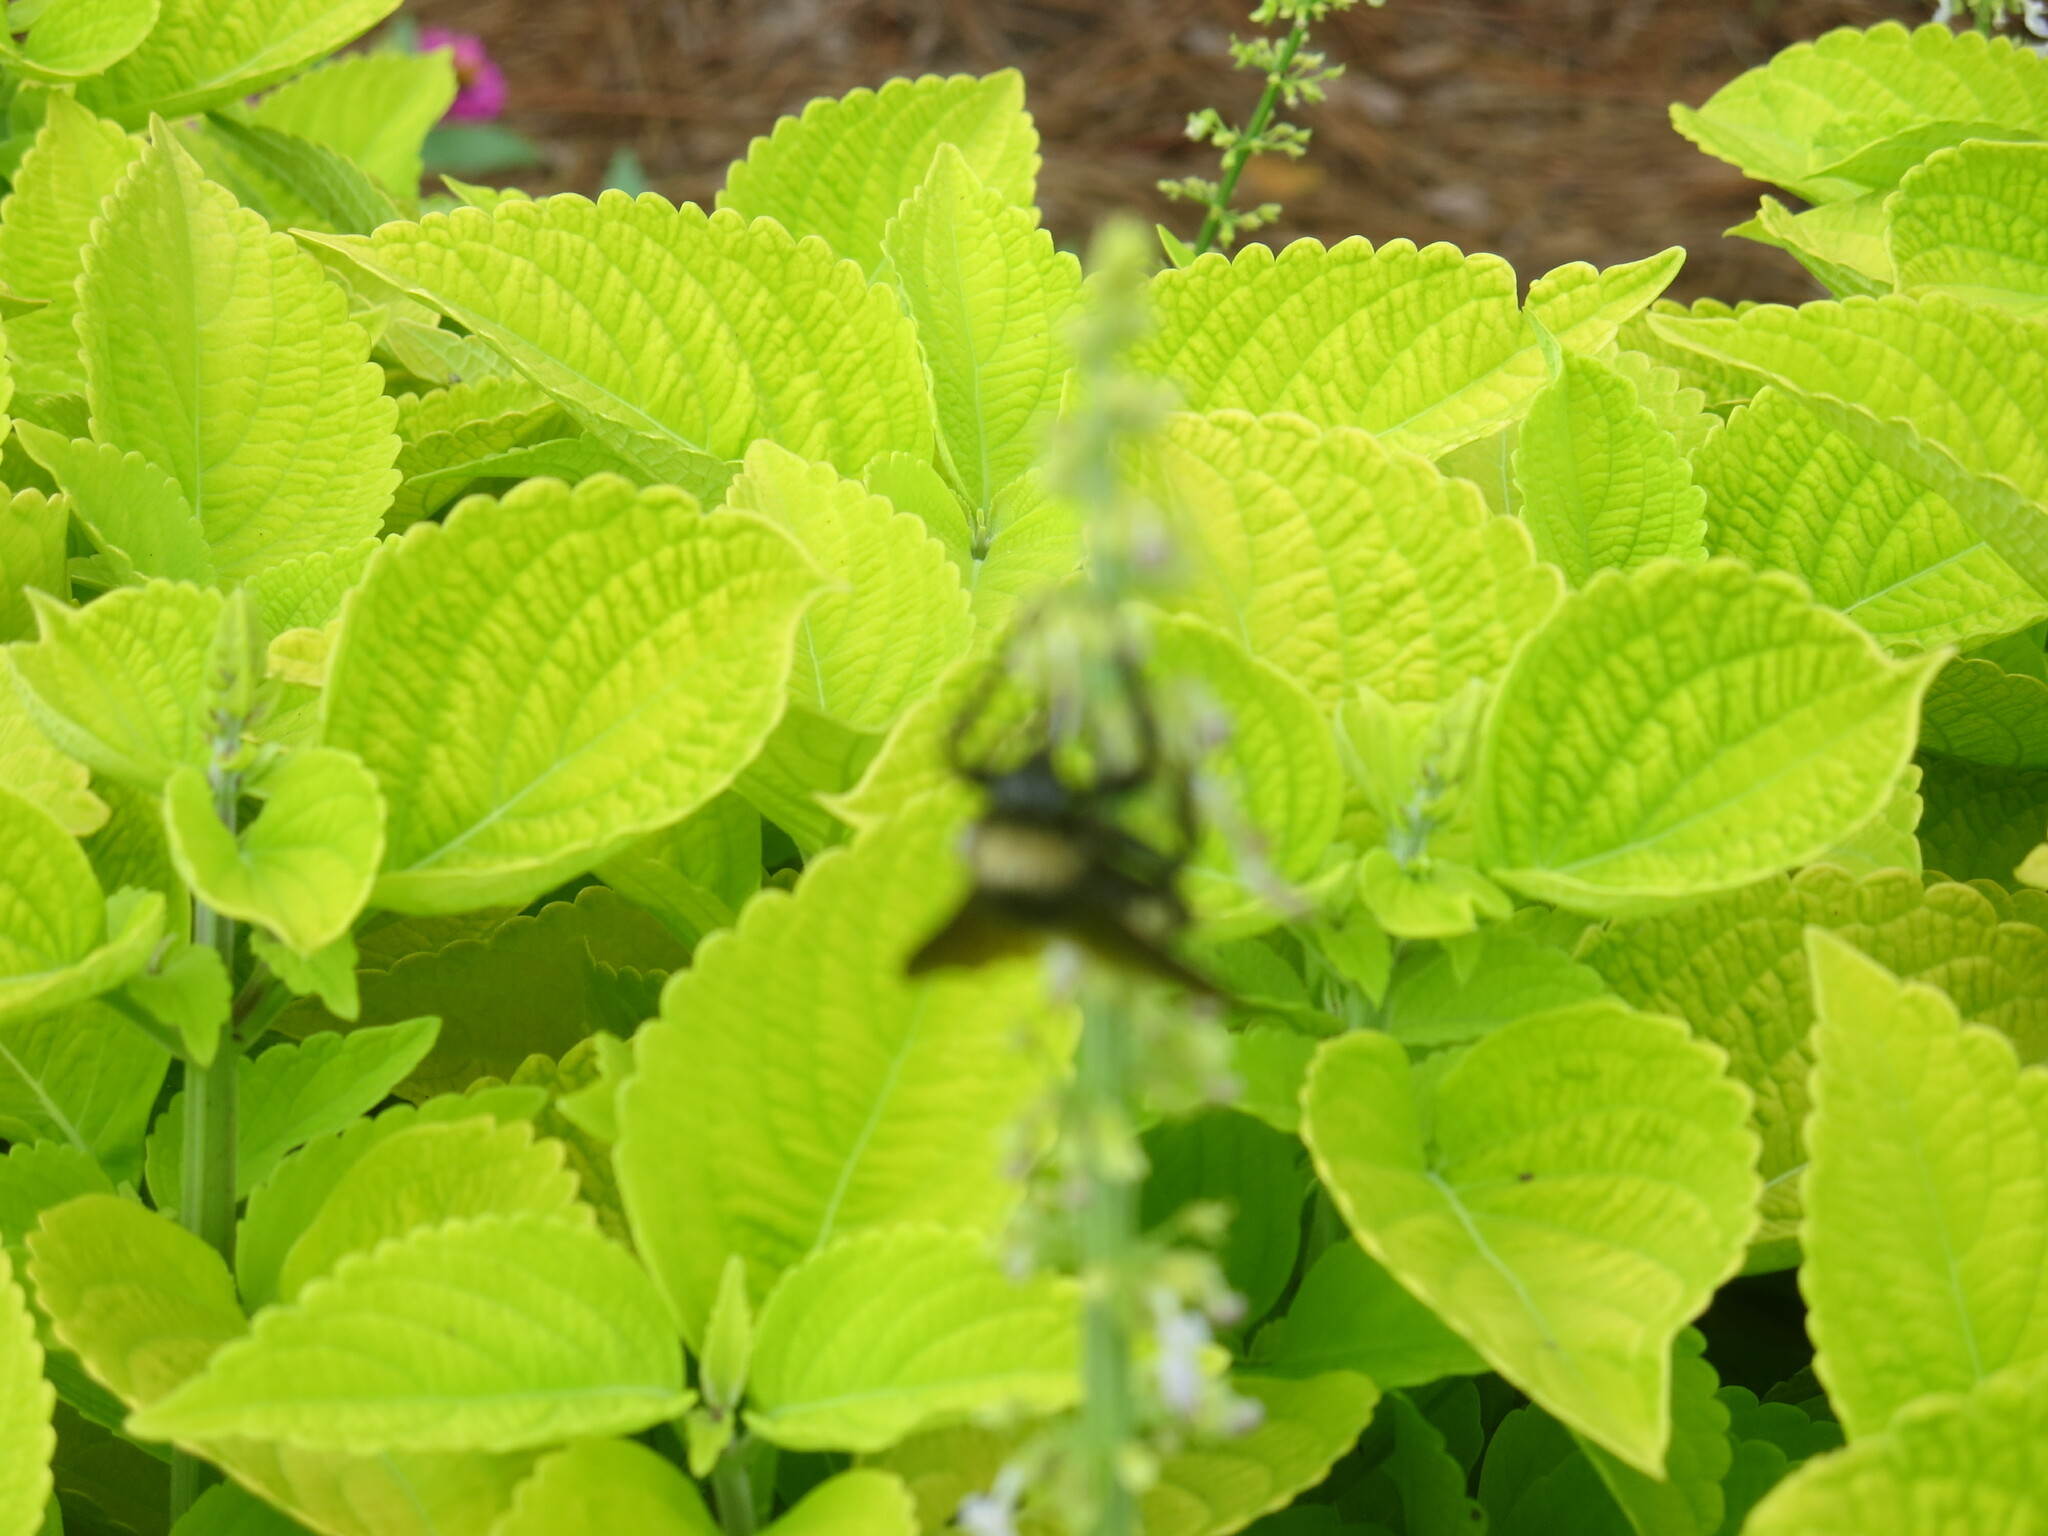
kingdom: Animalia
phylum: Arthropoda
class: Insecta
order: Hymenoptera
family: Apidae
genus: Bombus
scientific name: Bombus pensylvanicus
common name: Bumble bee
